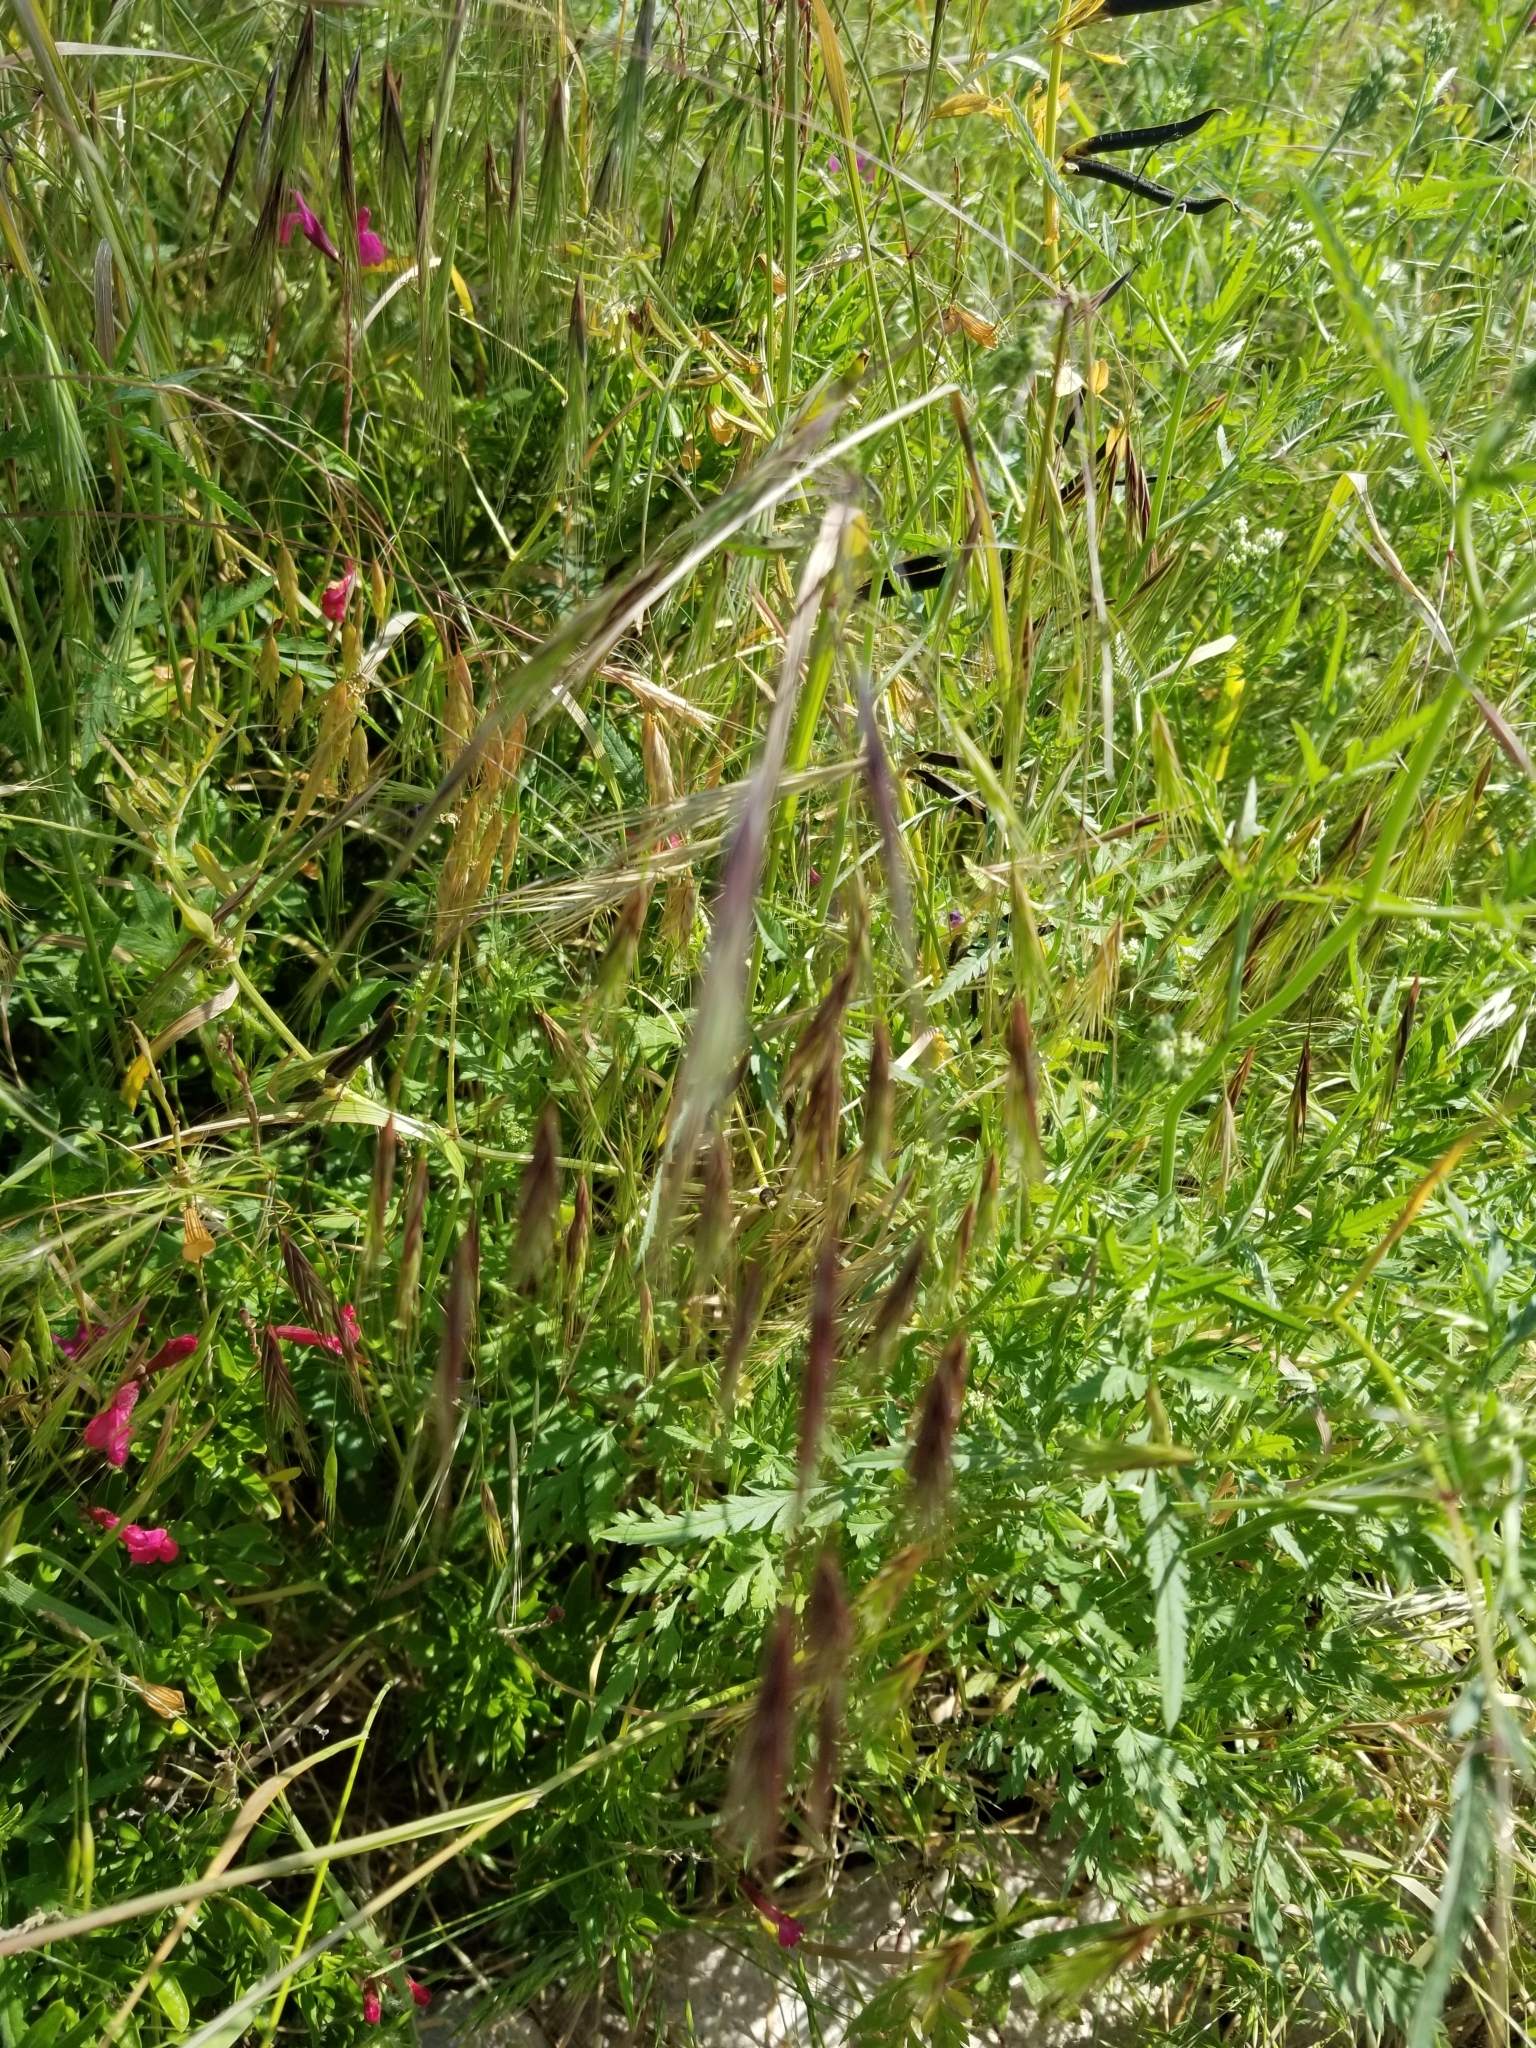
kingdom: Plantae
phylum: Tracheophyta
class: Liliopsida
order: Poales
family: Poaceae
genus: Bromus
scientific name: Bromus diandrus
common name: Ripgut brome
